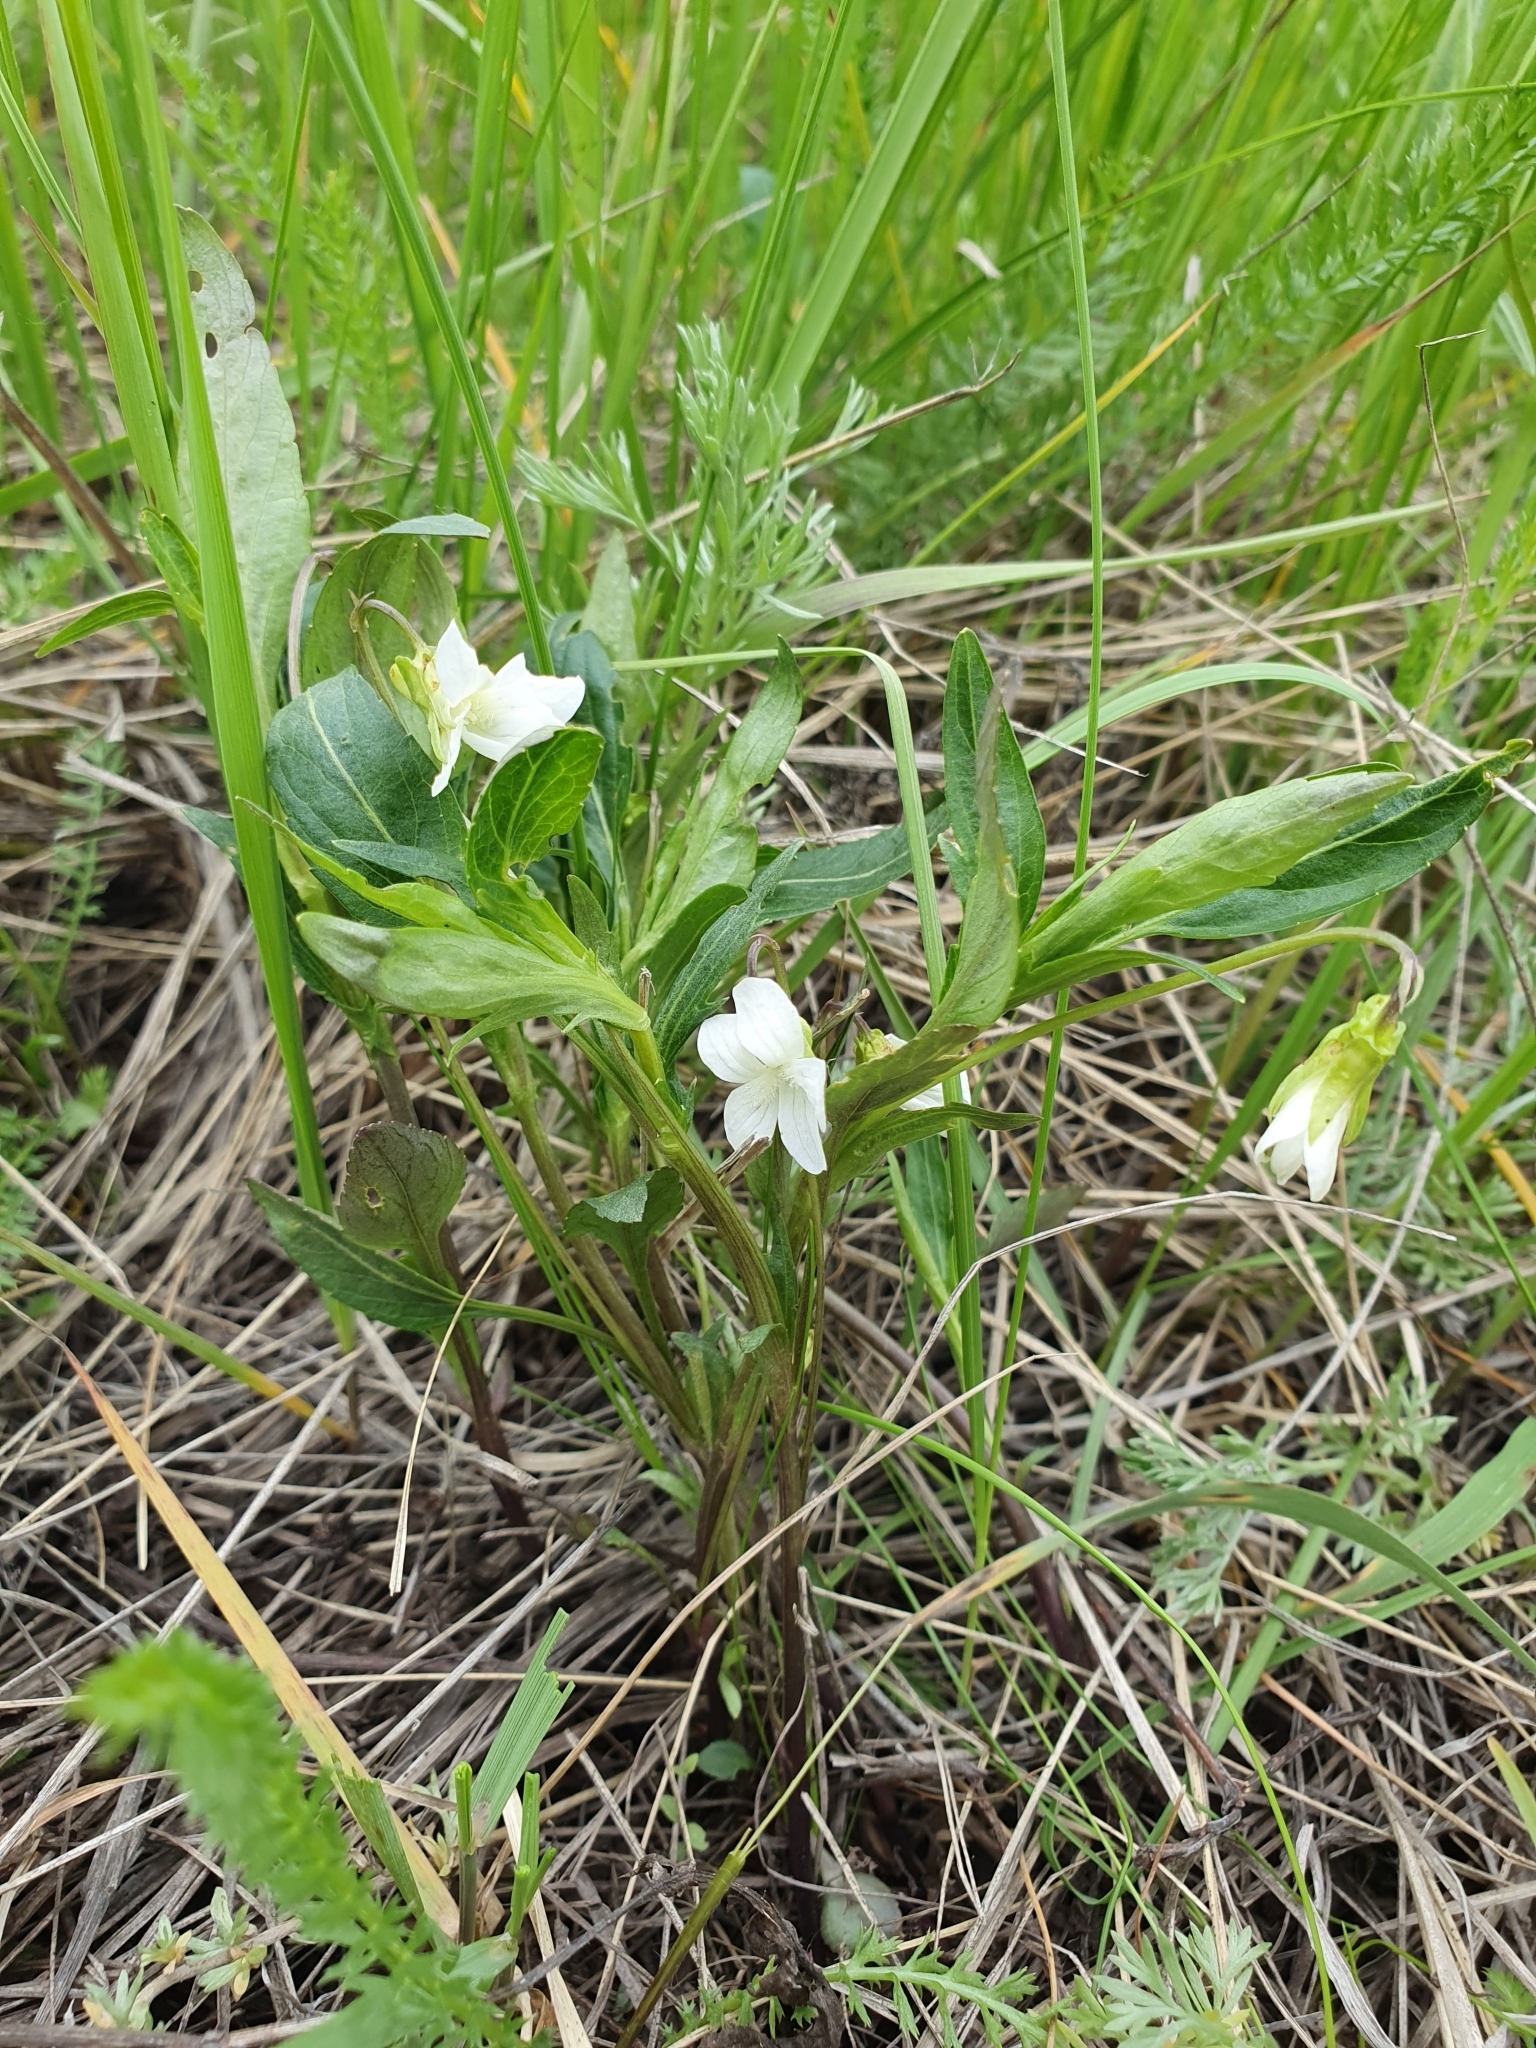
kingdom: Plantae
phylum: Tracheophyta
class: Magnoliopsida
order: Malpighiales
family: Violaceae
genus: Viola
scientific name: Viola pumila
